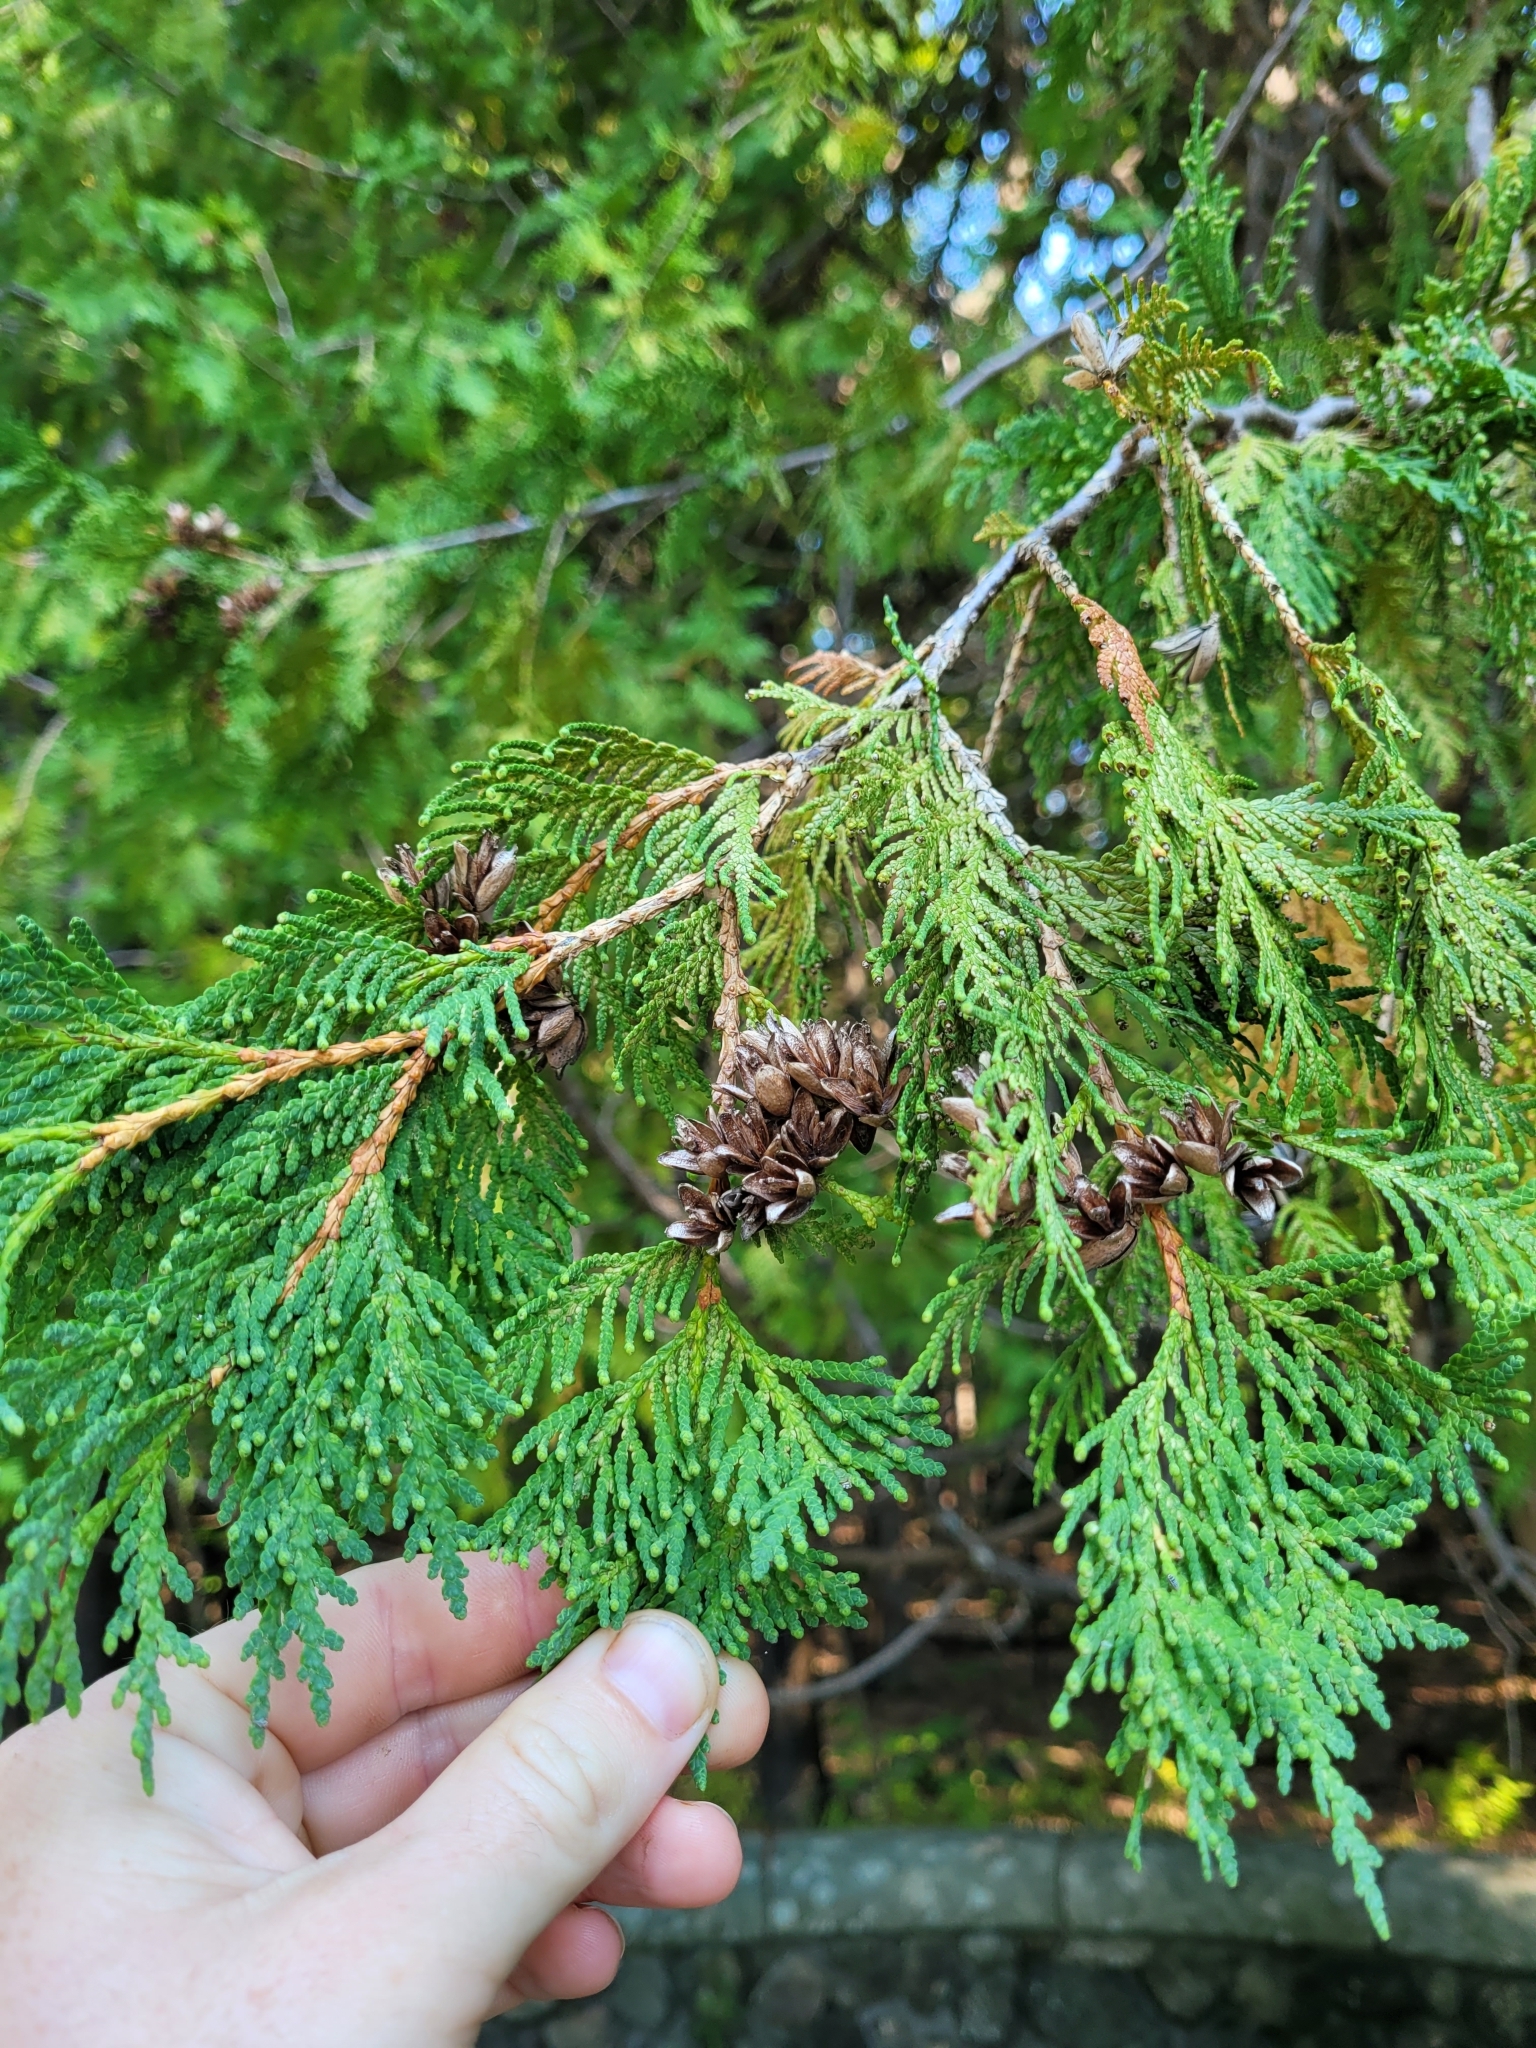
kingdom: Plantae
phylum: Tracheophyta
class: Pinopsida
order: Pinales
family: Cupressaceae
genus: Thuja
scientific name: Thuja occidentalis
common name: Northern white-cedar
